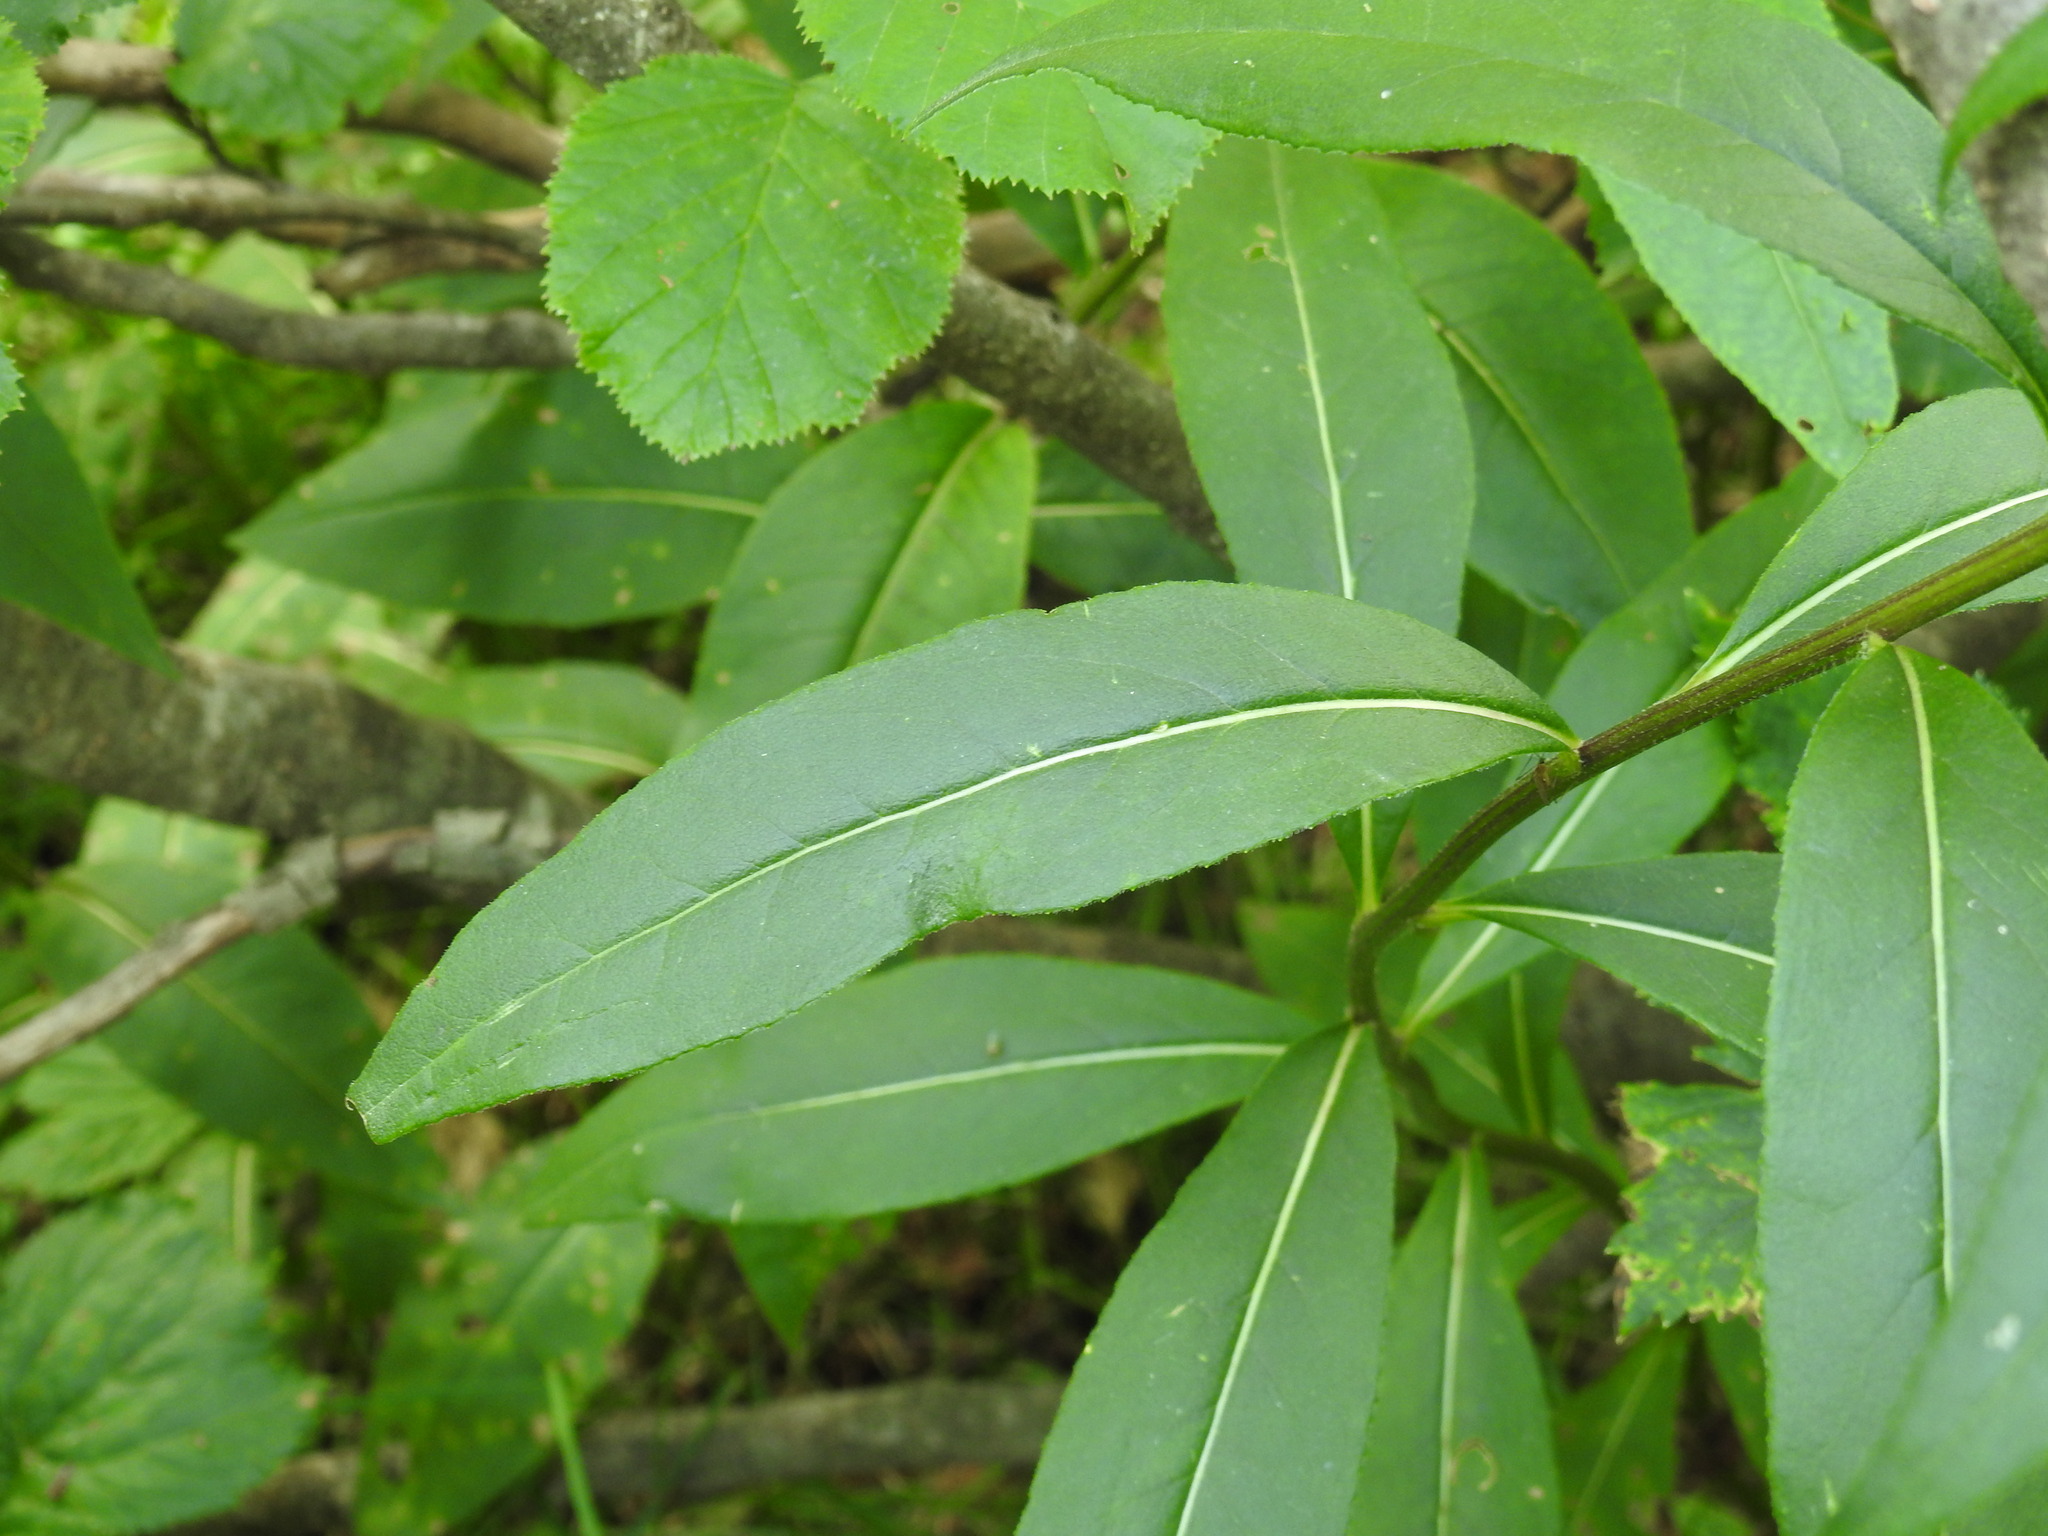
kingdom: Plantae
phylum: Tracheophyta
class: Magnoliopsida
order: Asterales
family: Asteraceae
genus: Senecio
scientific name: Senecio ovatus
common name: Wood ragwort
